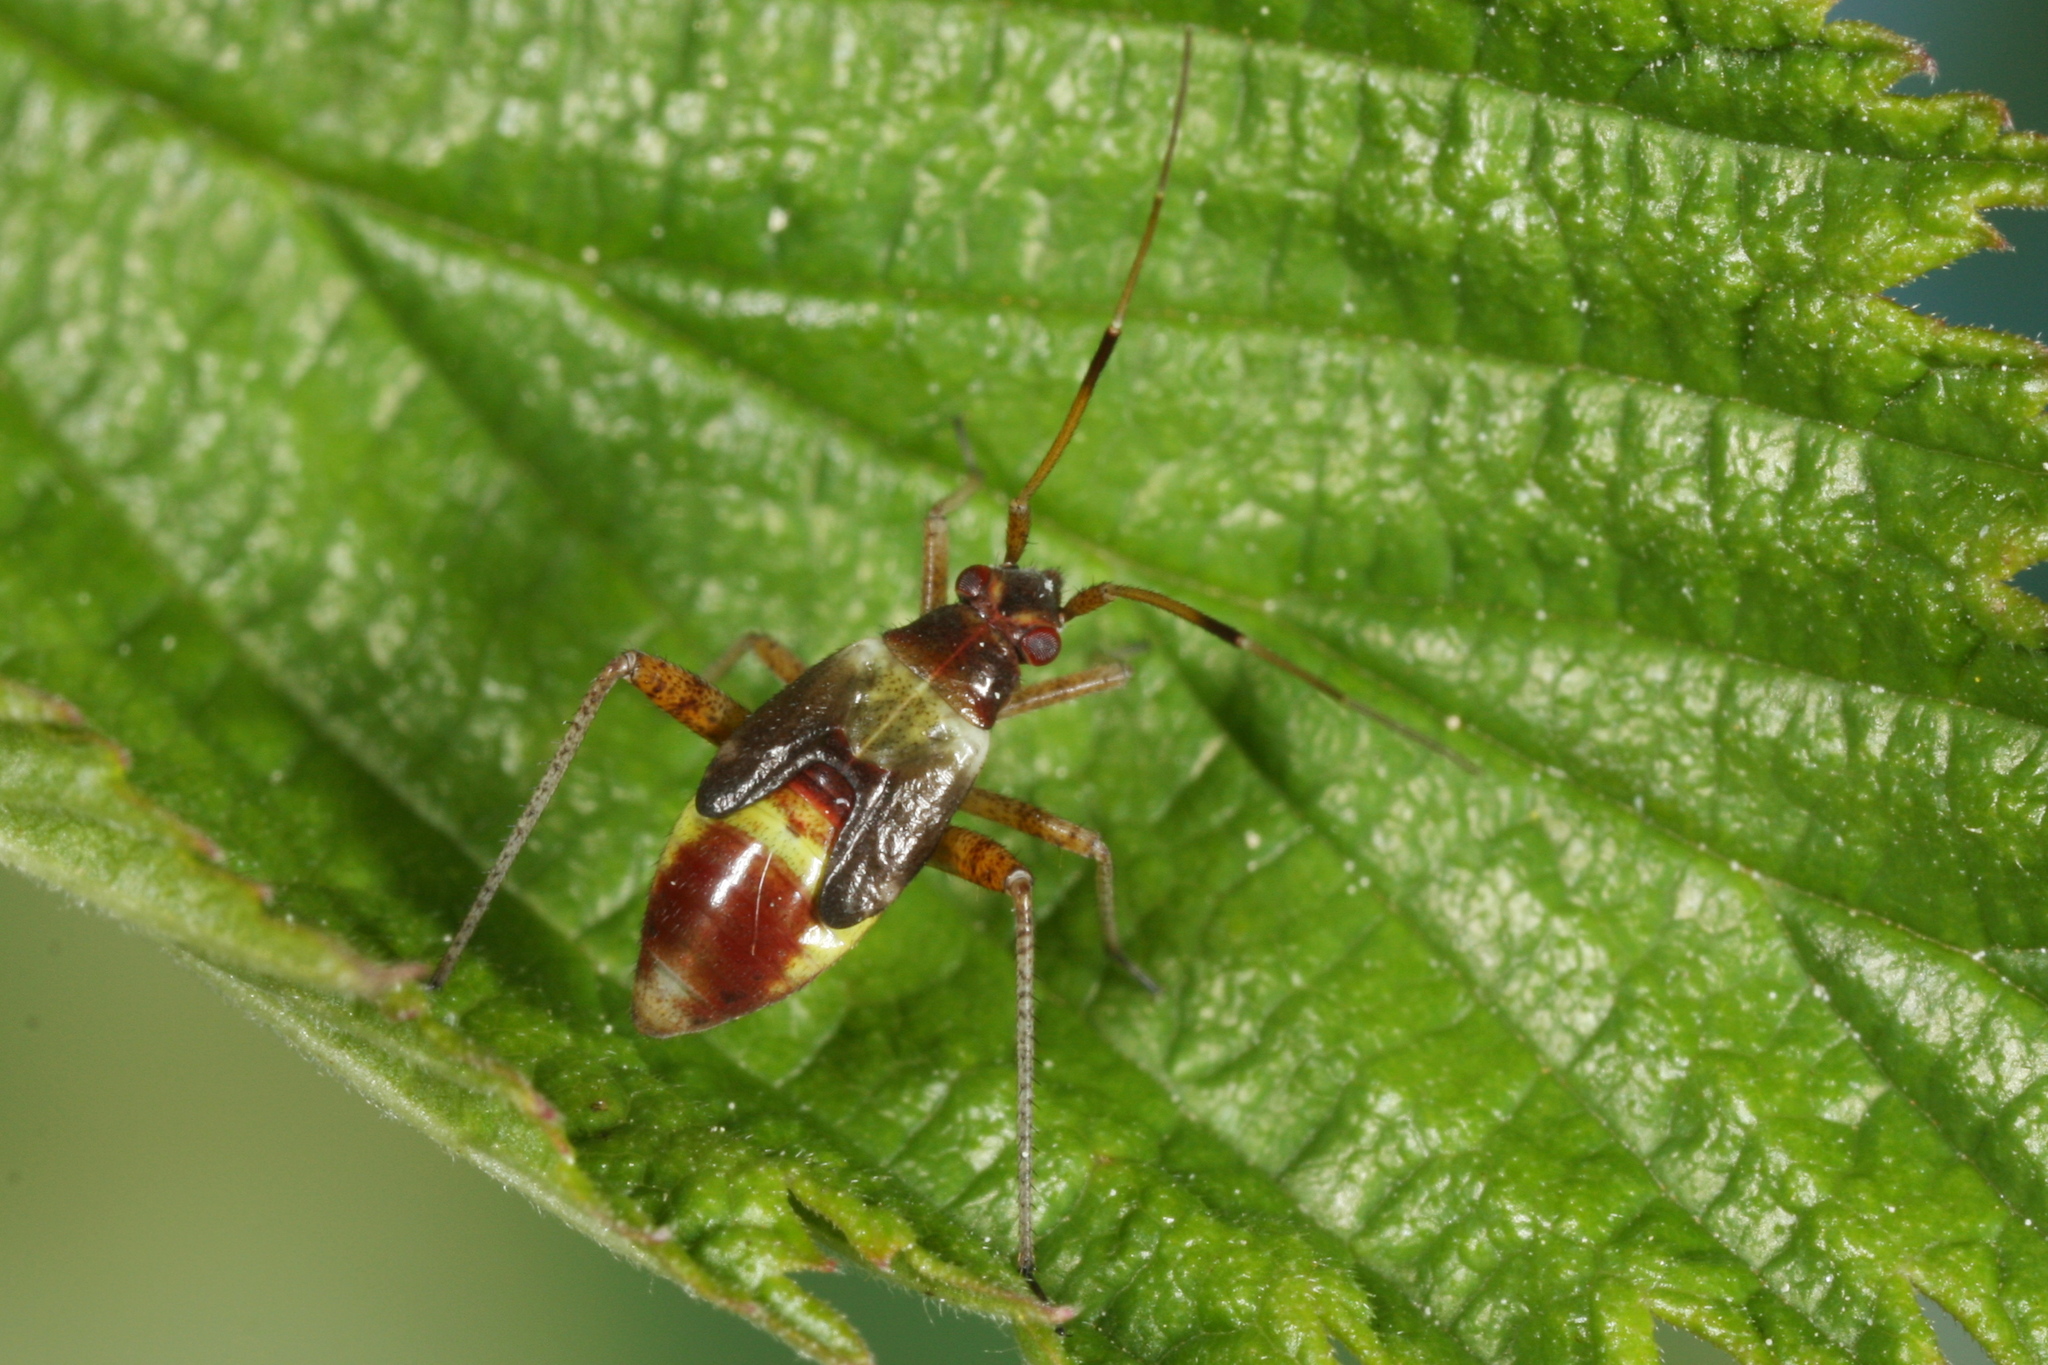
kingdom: Animalia
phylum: Arthropoda
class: Insecta
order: Hemiptera
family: Miridae
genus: Closterotomus
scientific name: Closterotomus fulvomaculatus
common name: Spotted plant bug
